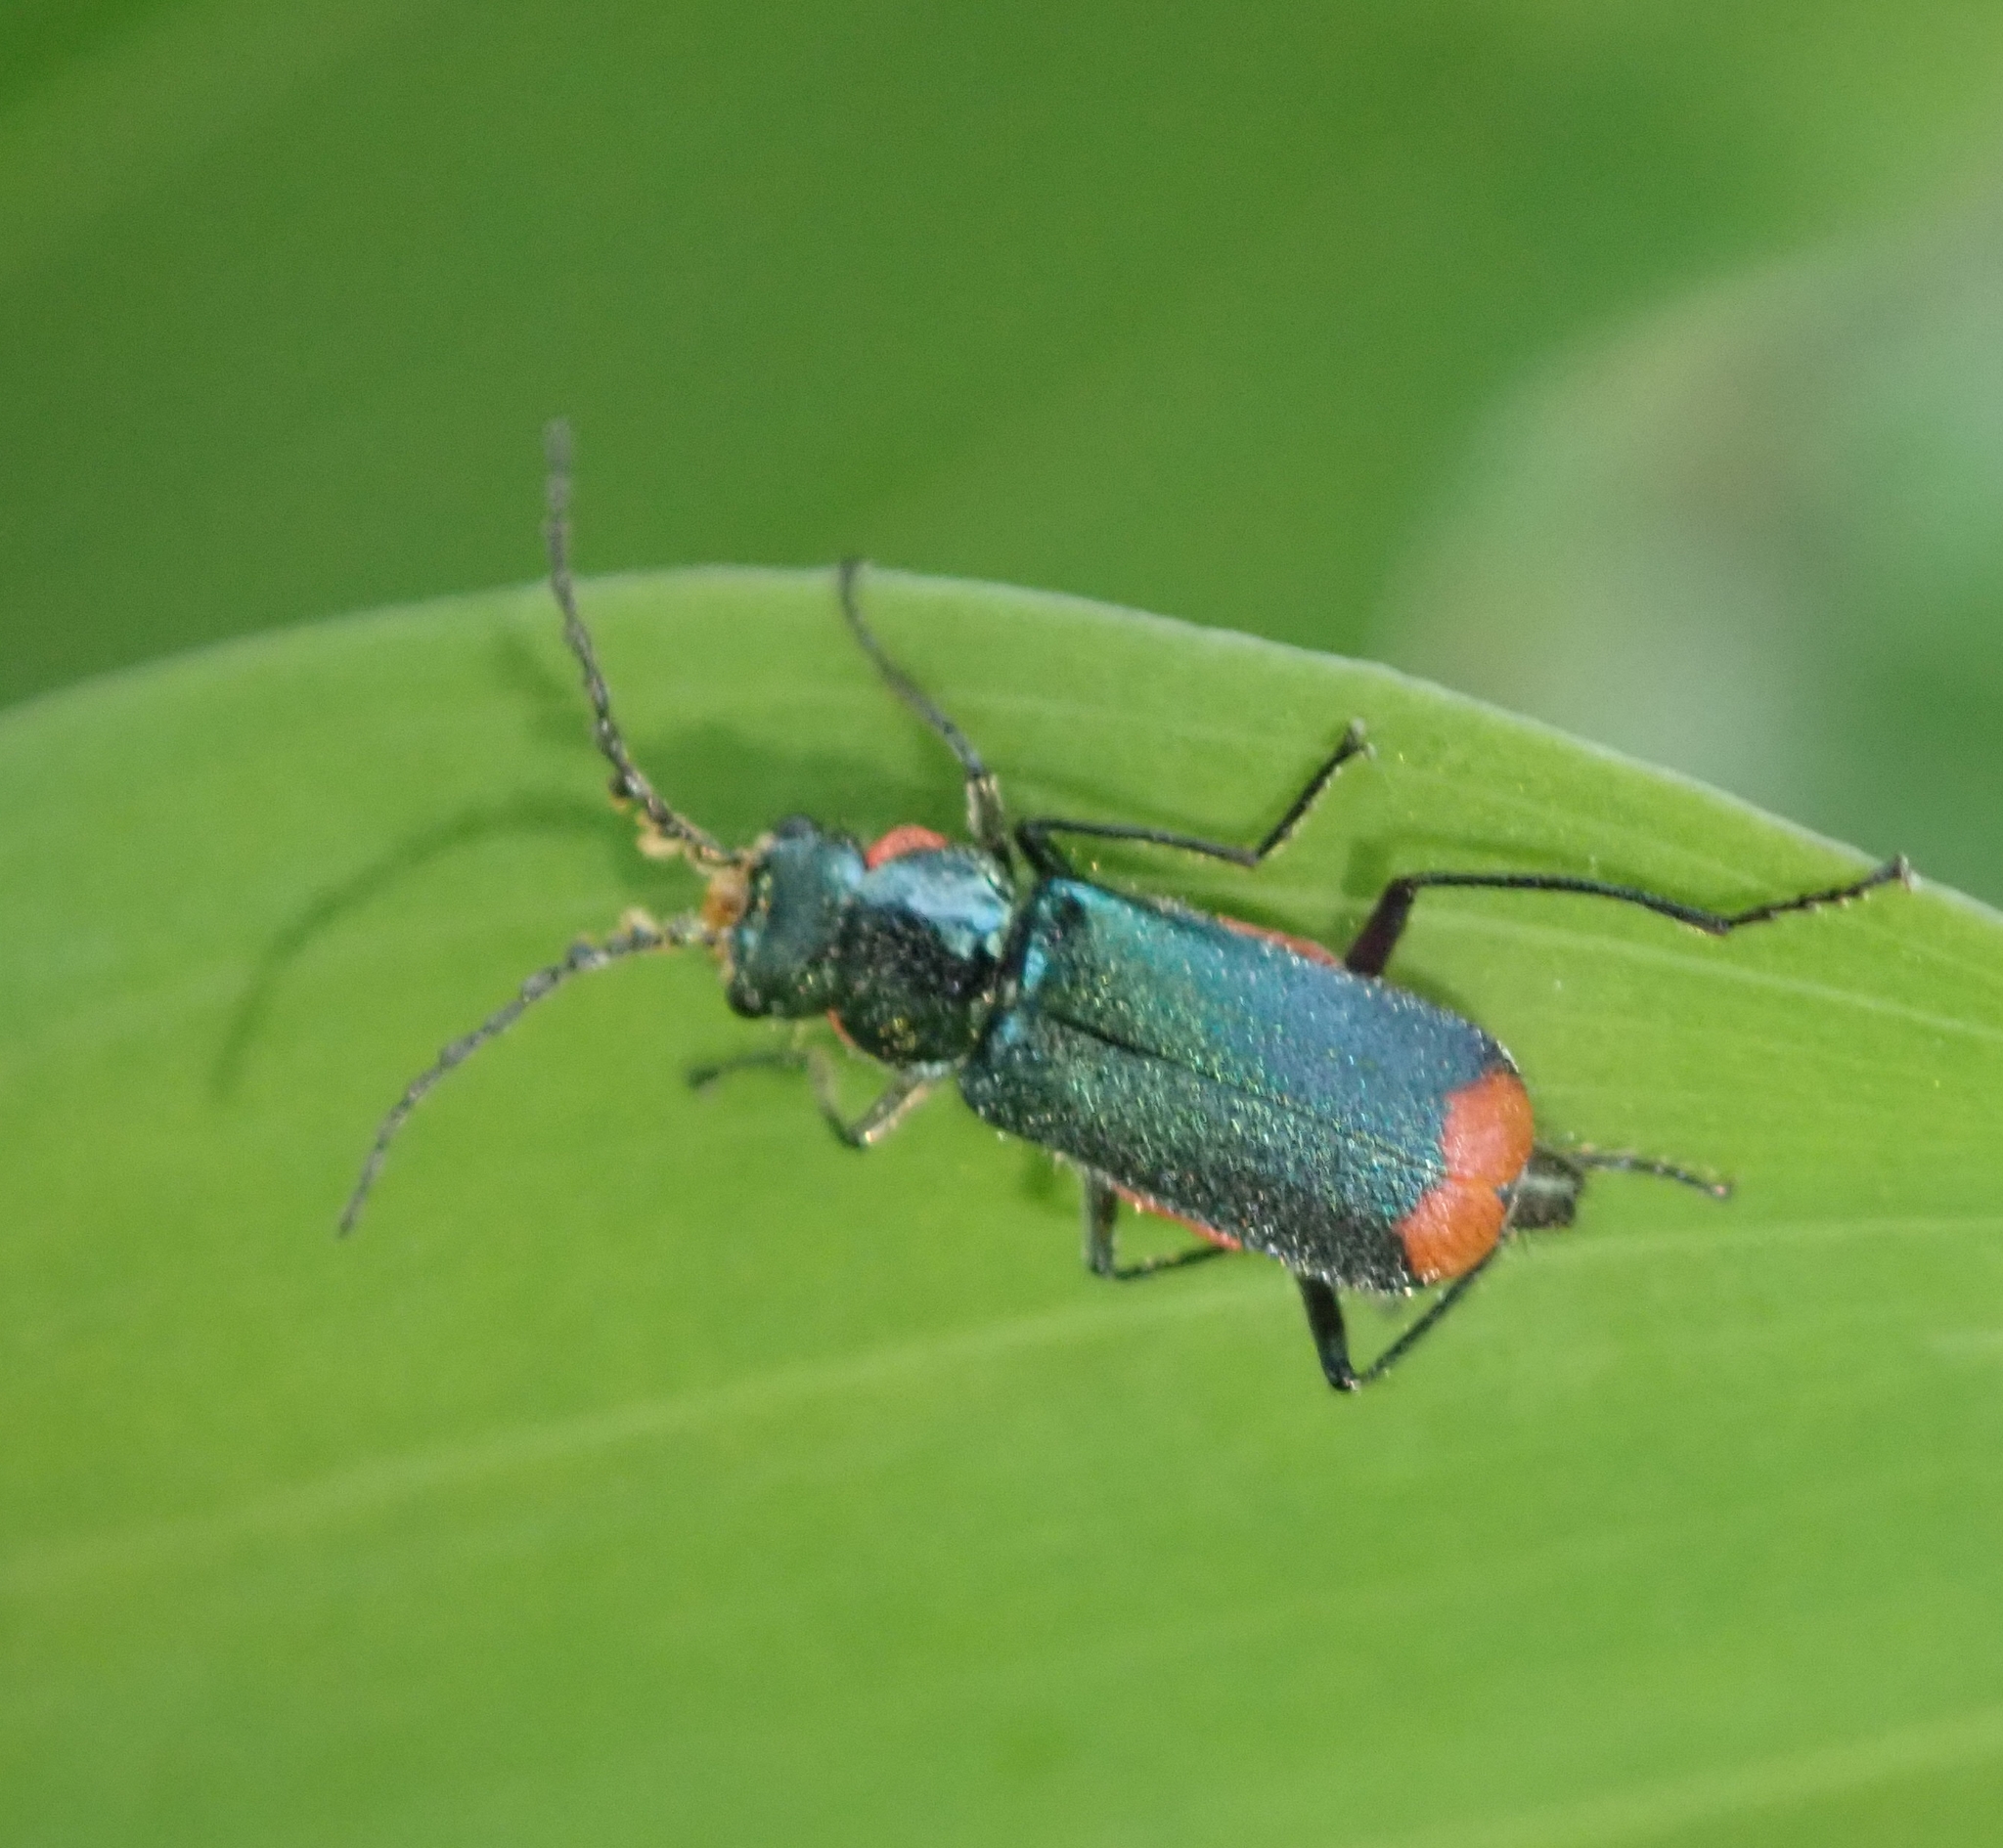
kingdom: Animalia
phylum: Arthropoda
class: Insecta
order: Coleoptera
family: Melyridae
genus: Malachius
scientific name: Malachius bipustulatus
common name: Malachite beetle
